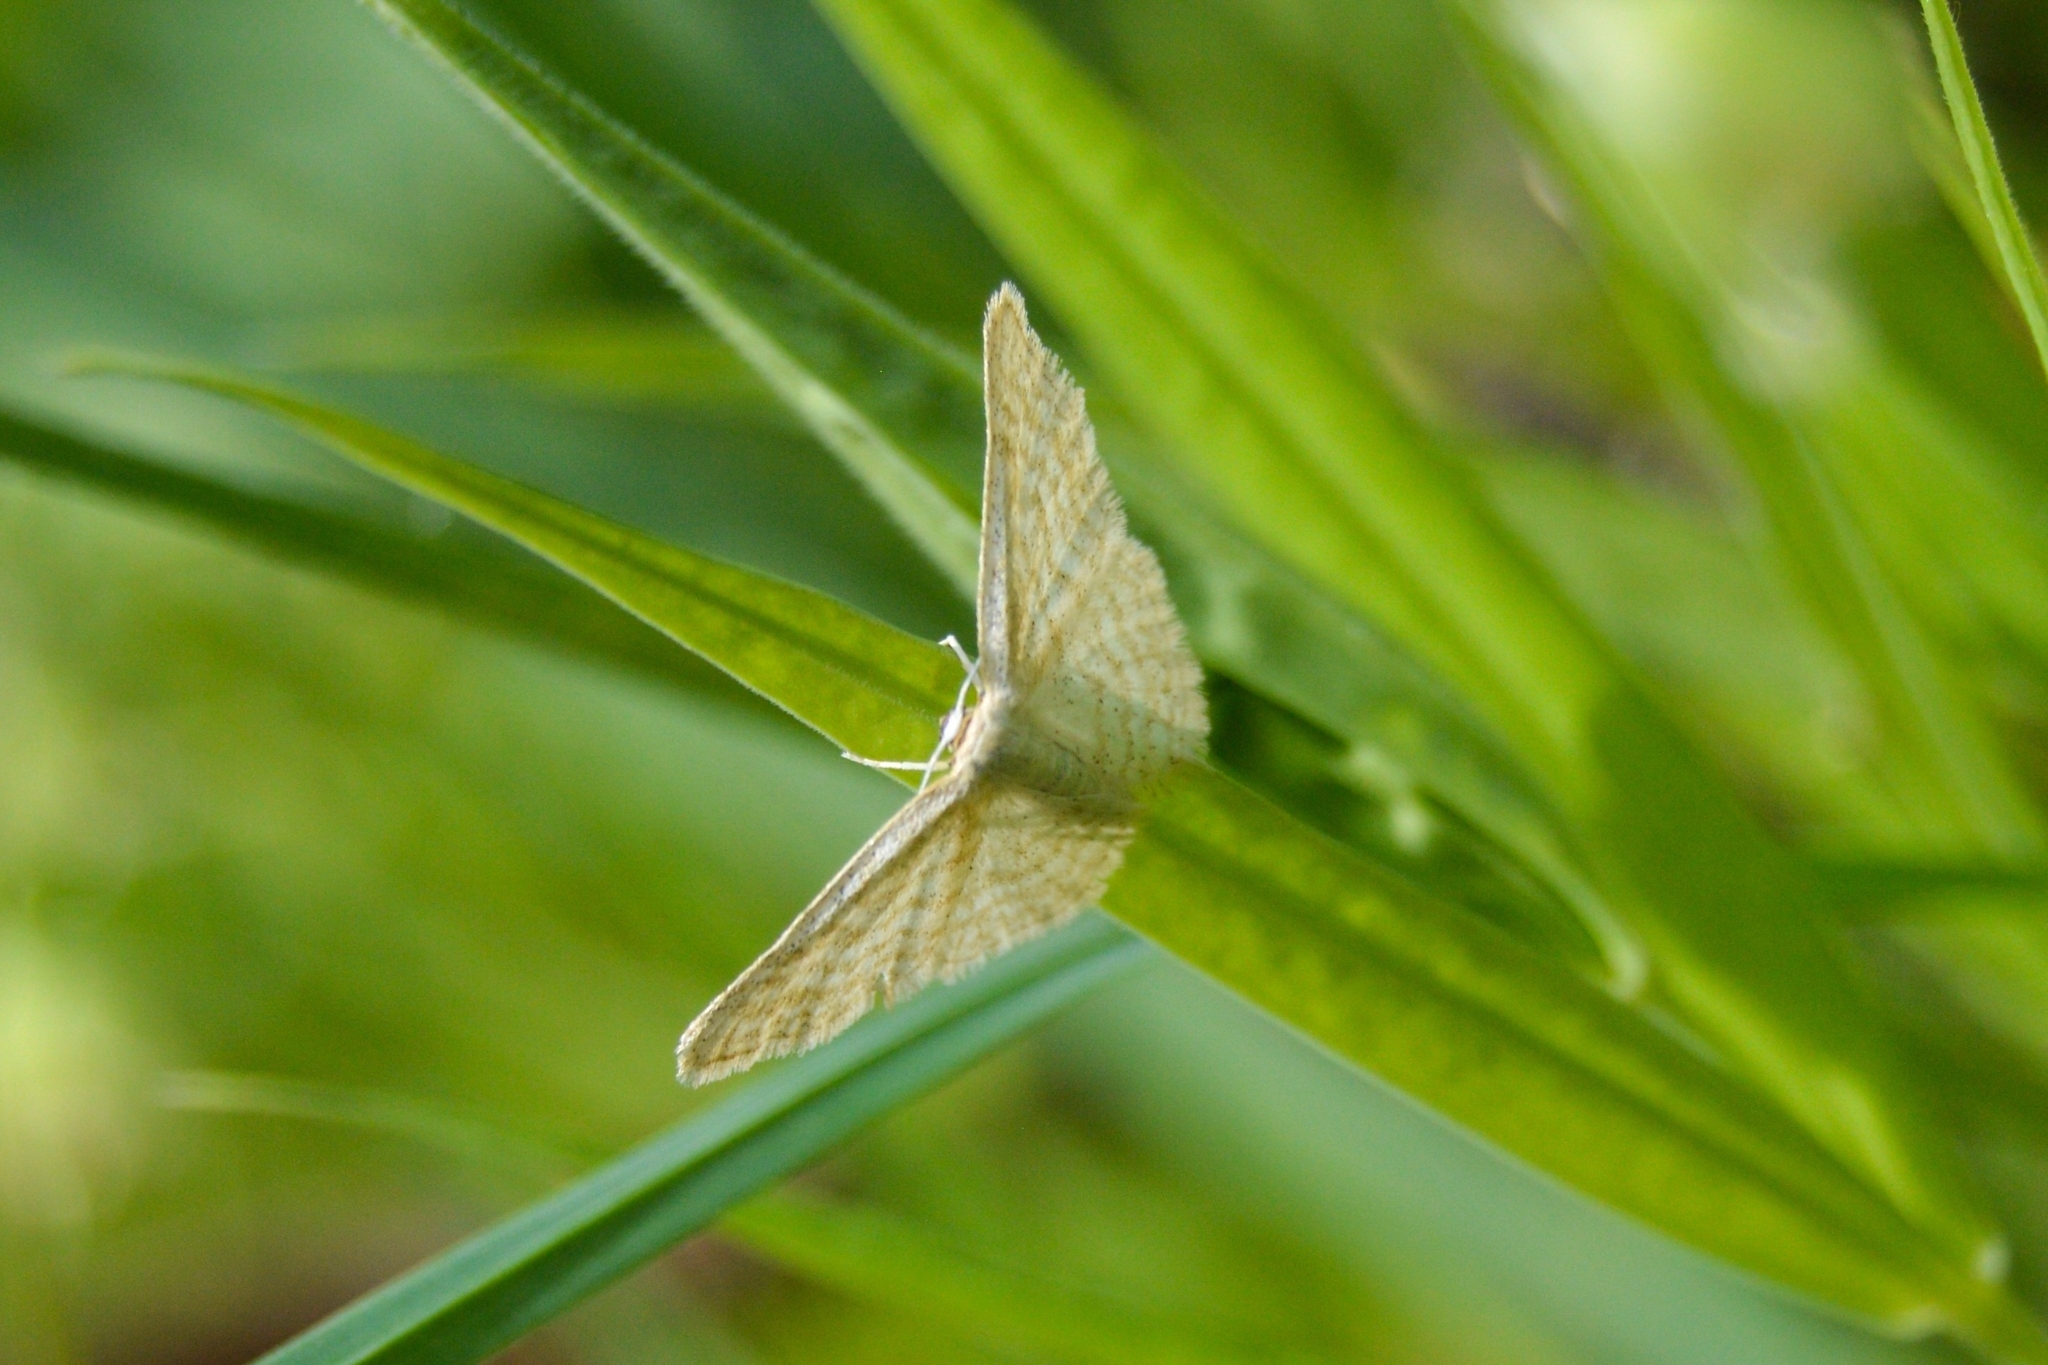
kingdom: Animalia
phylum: Arthropoda
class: Insecta
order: Lepidoptera
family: Geometridae
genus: Idaea
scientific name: Idaea pallidata
